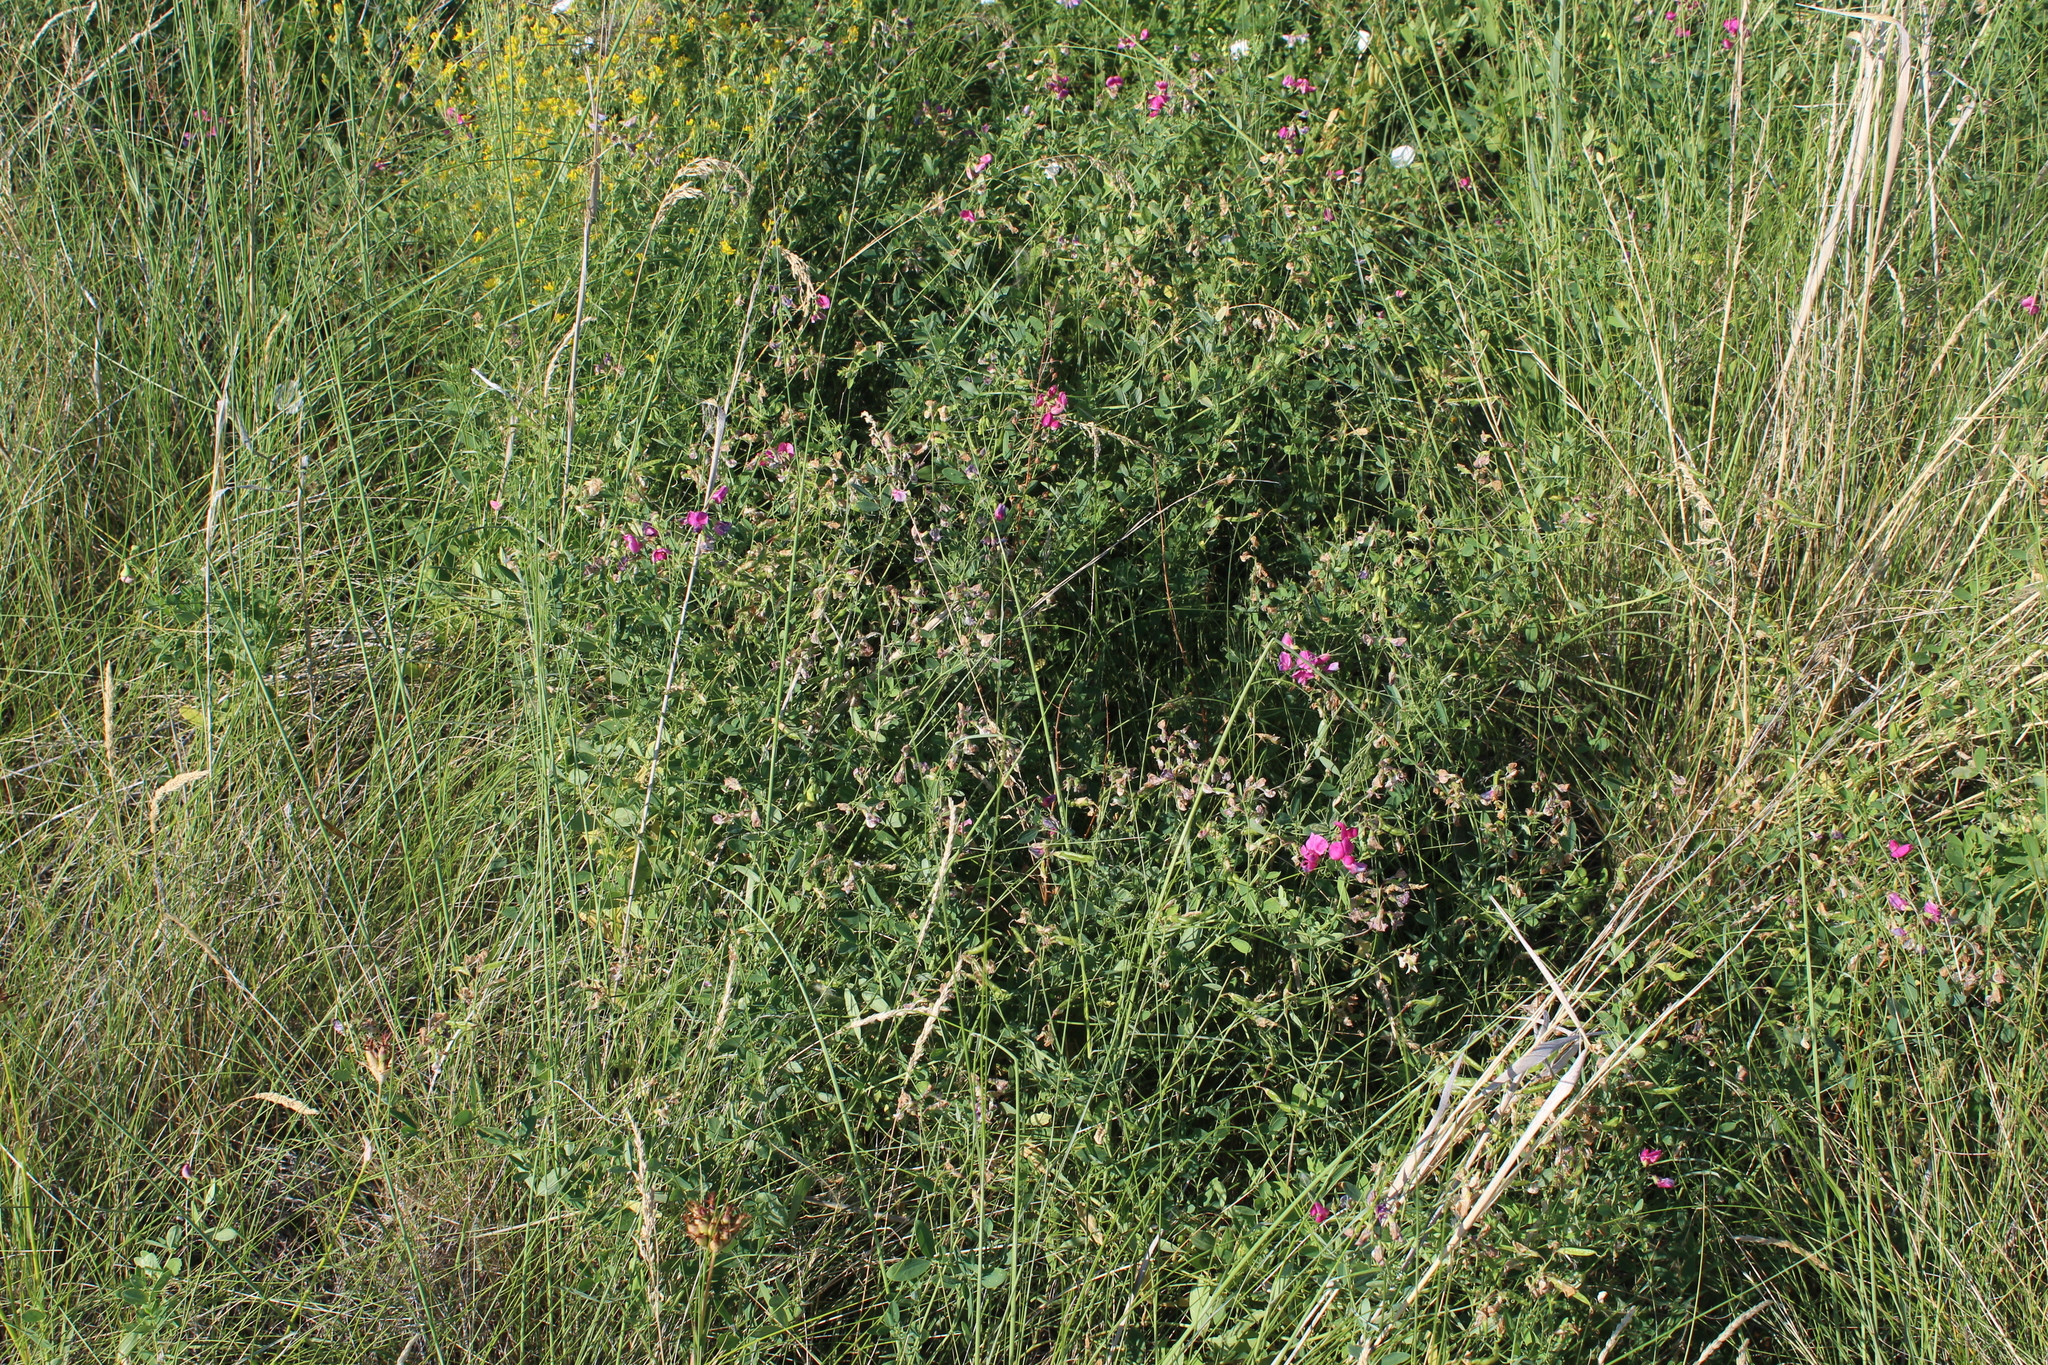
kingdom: Plantae
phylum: Tracheophyta
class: Magnoliopsida
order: Fabales
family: Fabaceae
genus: Lathyrus
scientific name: Lathyrus tuberosus
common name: Tuberous pea
